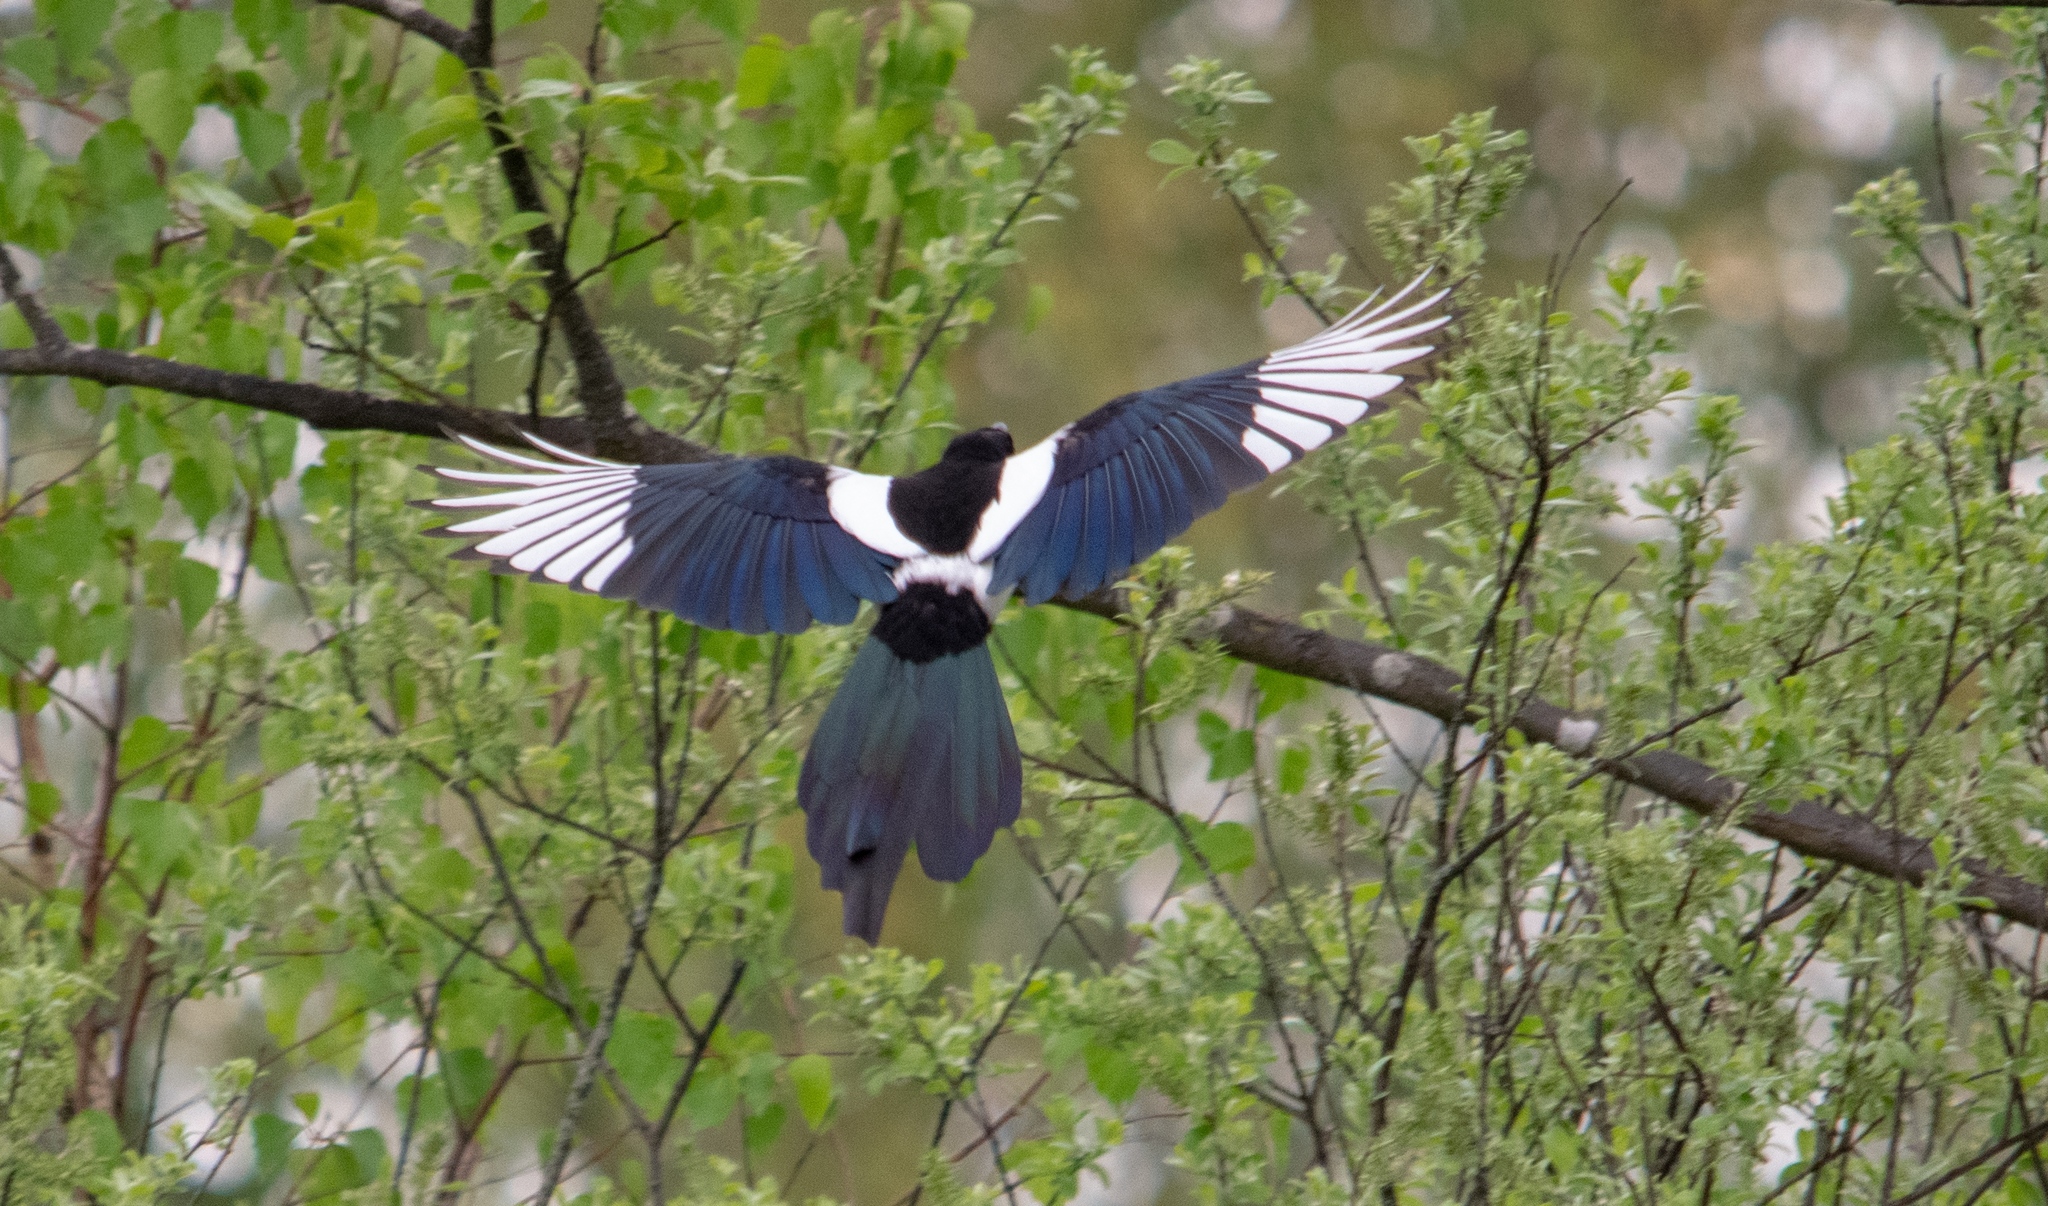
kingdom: Animalia
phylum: Chordata
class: Aves
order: Passeriformes
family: Corvidae
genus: Pica
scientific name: Pica pica
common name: Eurasian magpie
